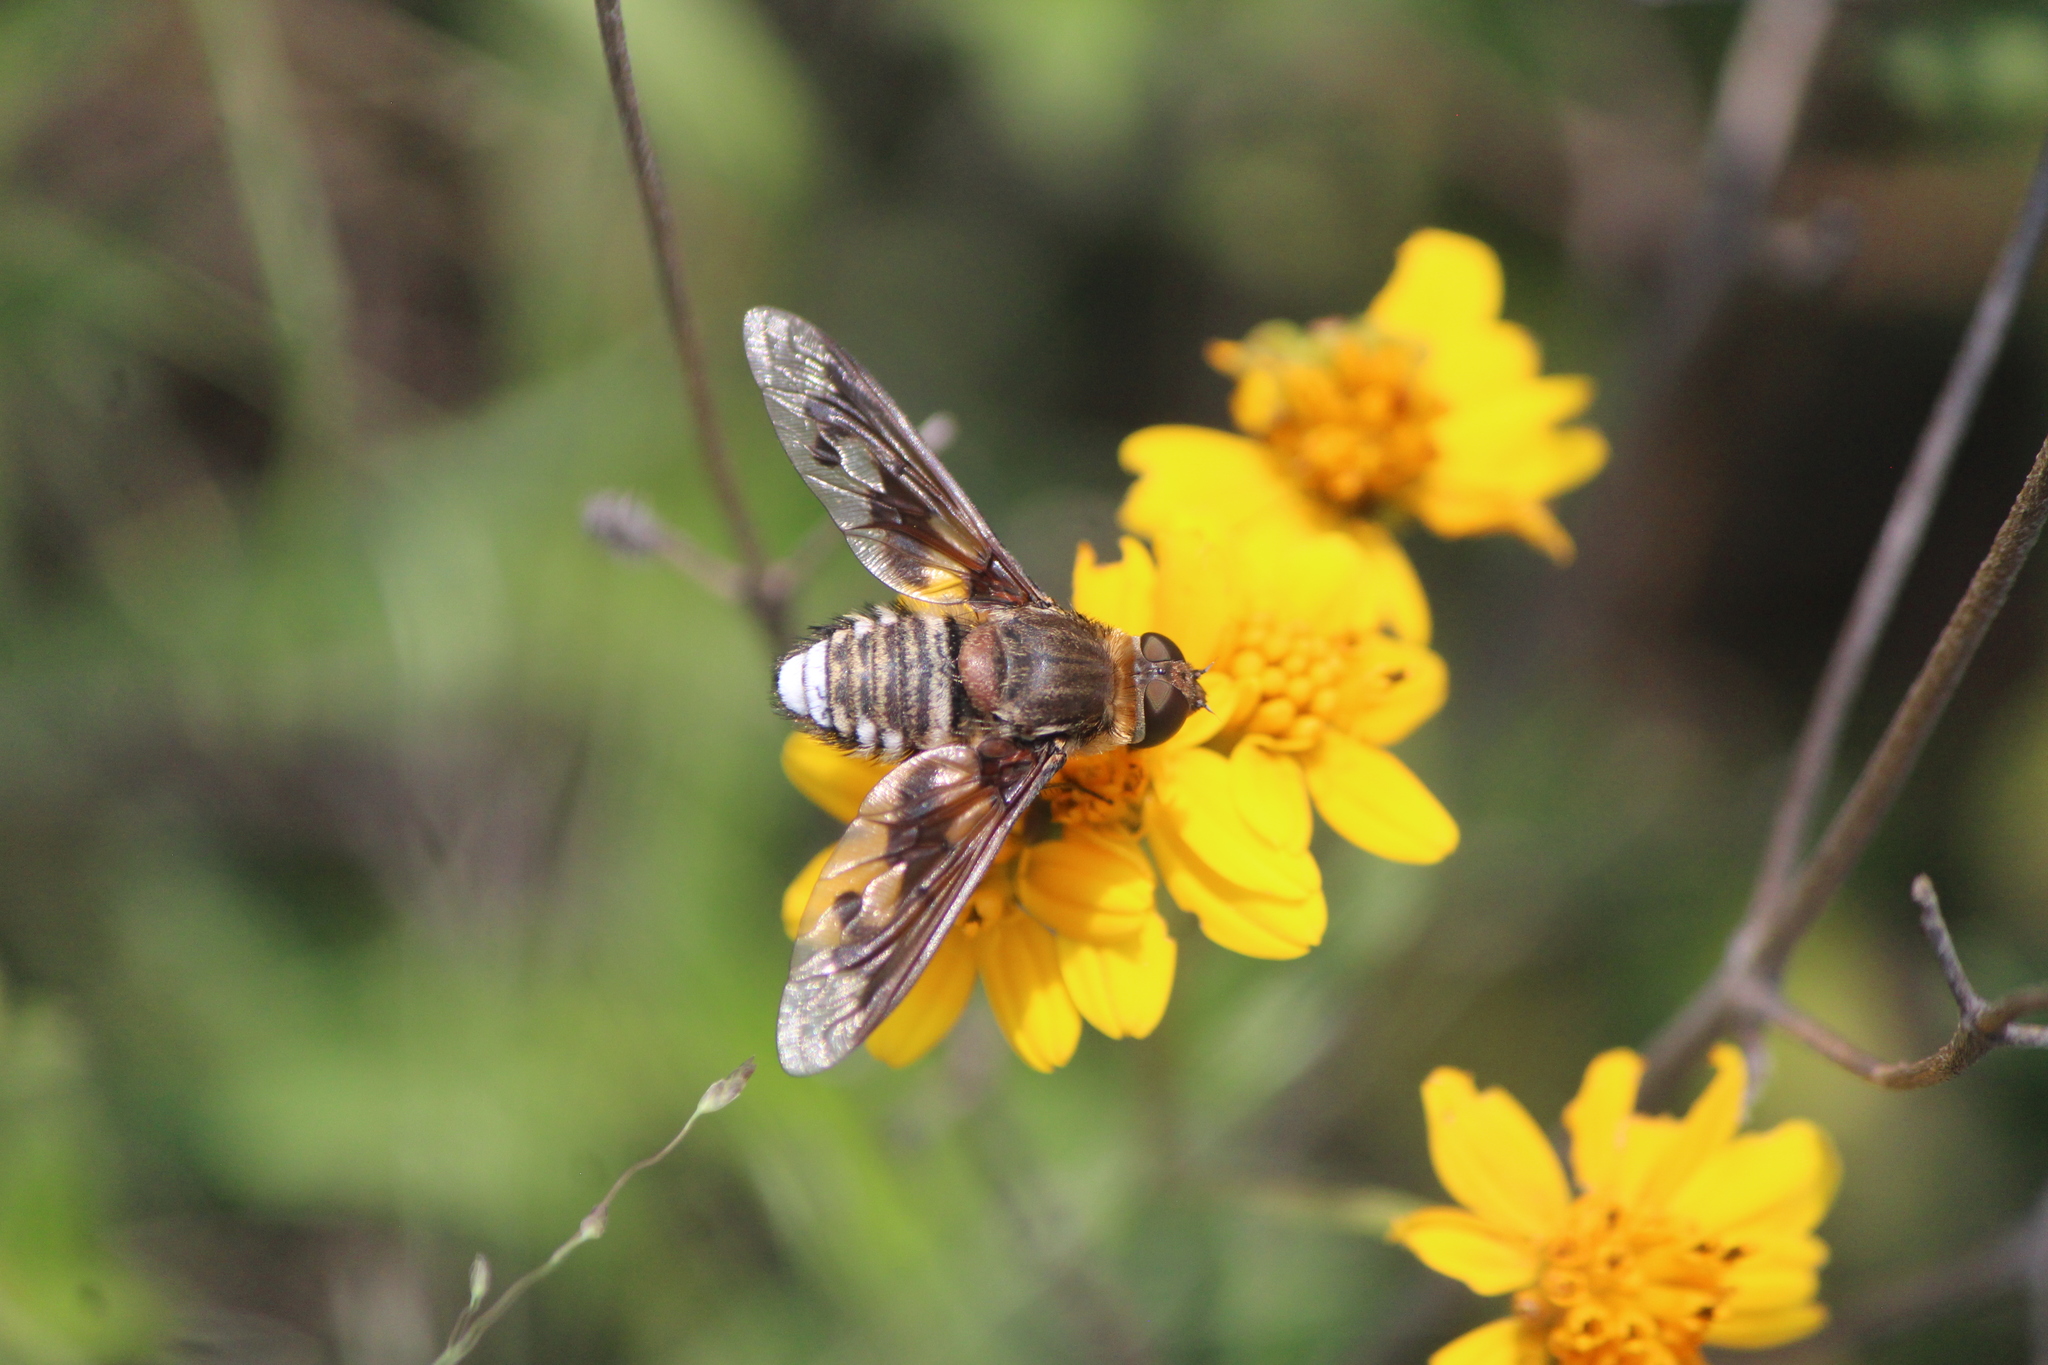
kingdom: Animalia
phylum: Arthropoda
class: Insecta
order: Diptera
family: Bombyliidae
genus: Exoprosopa
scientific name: Exoprosopa pueblensis
